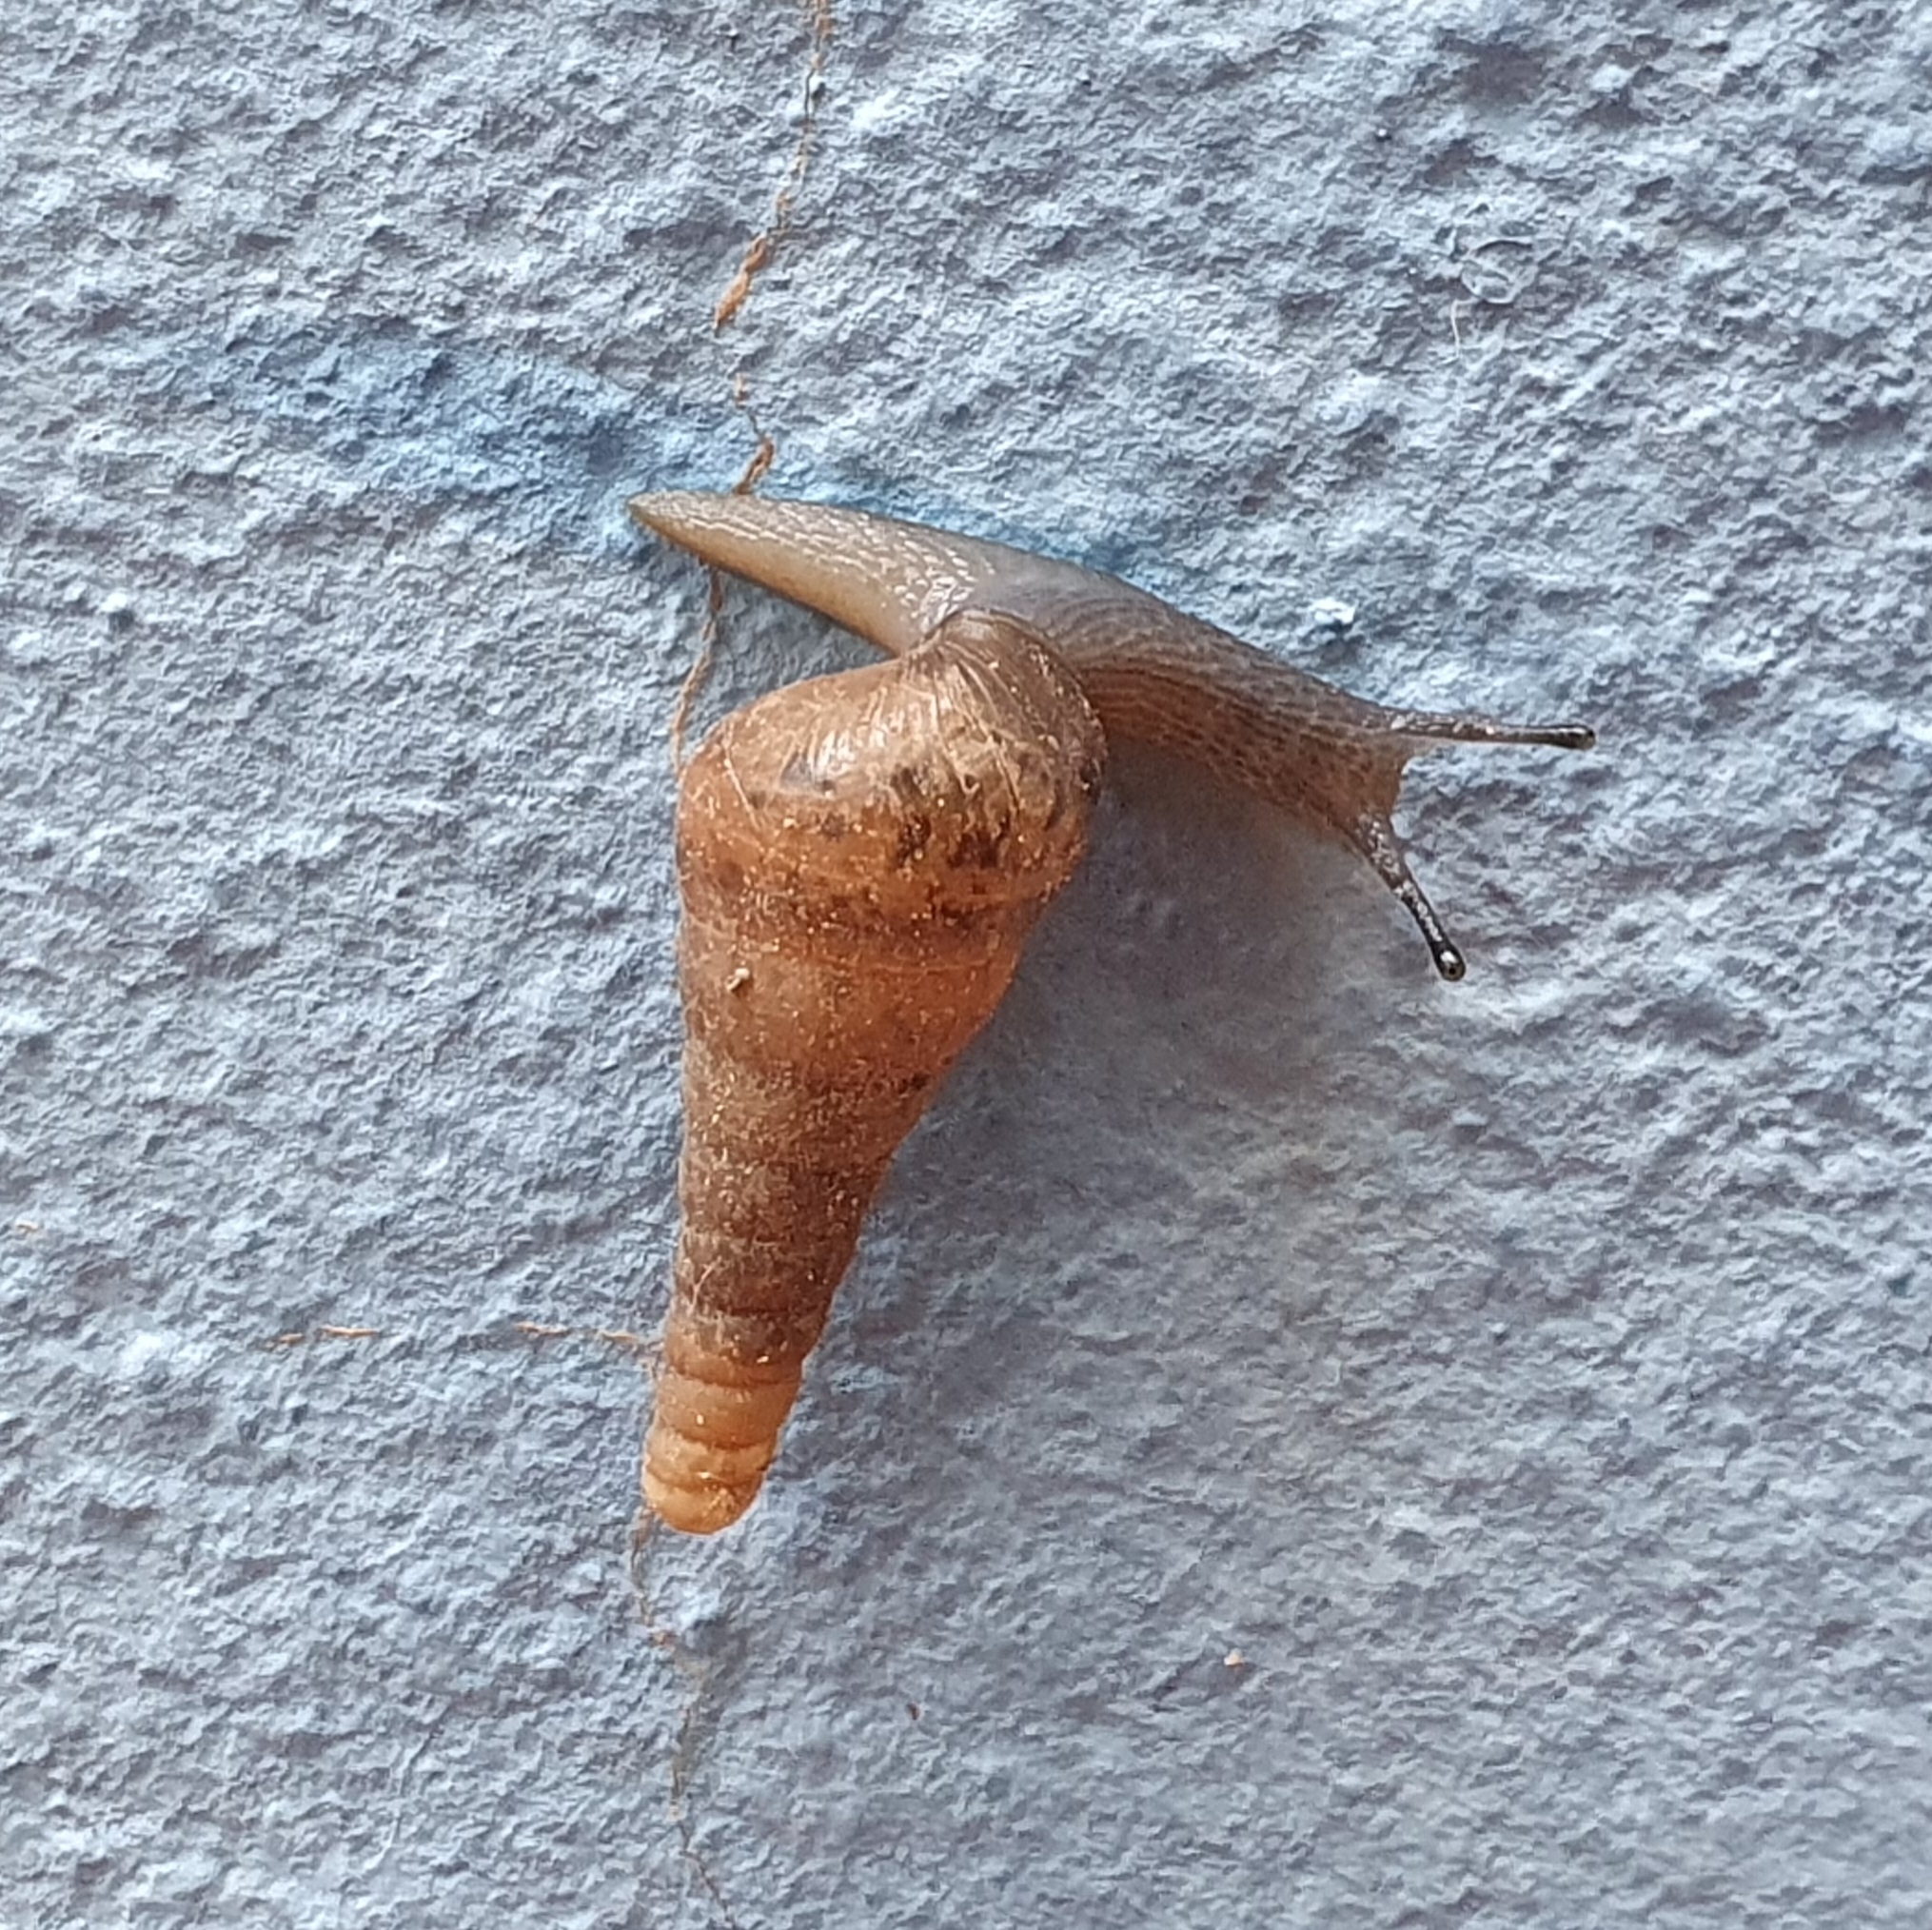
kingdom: Animalia
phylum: Mollusca
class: Gastropoda
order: Stylommatophora
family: Achatinidae
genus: Rumina
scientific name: Rumina decollata
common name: Decollate snail
